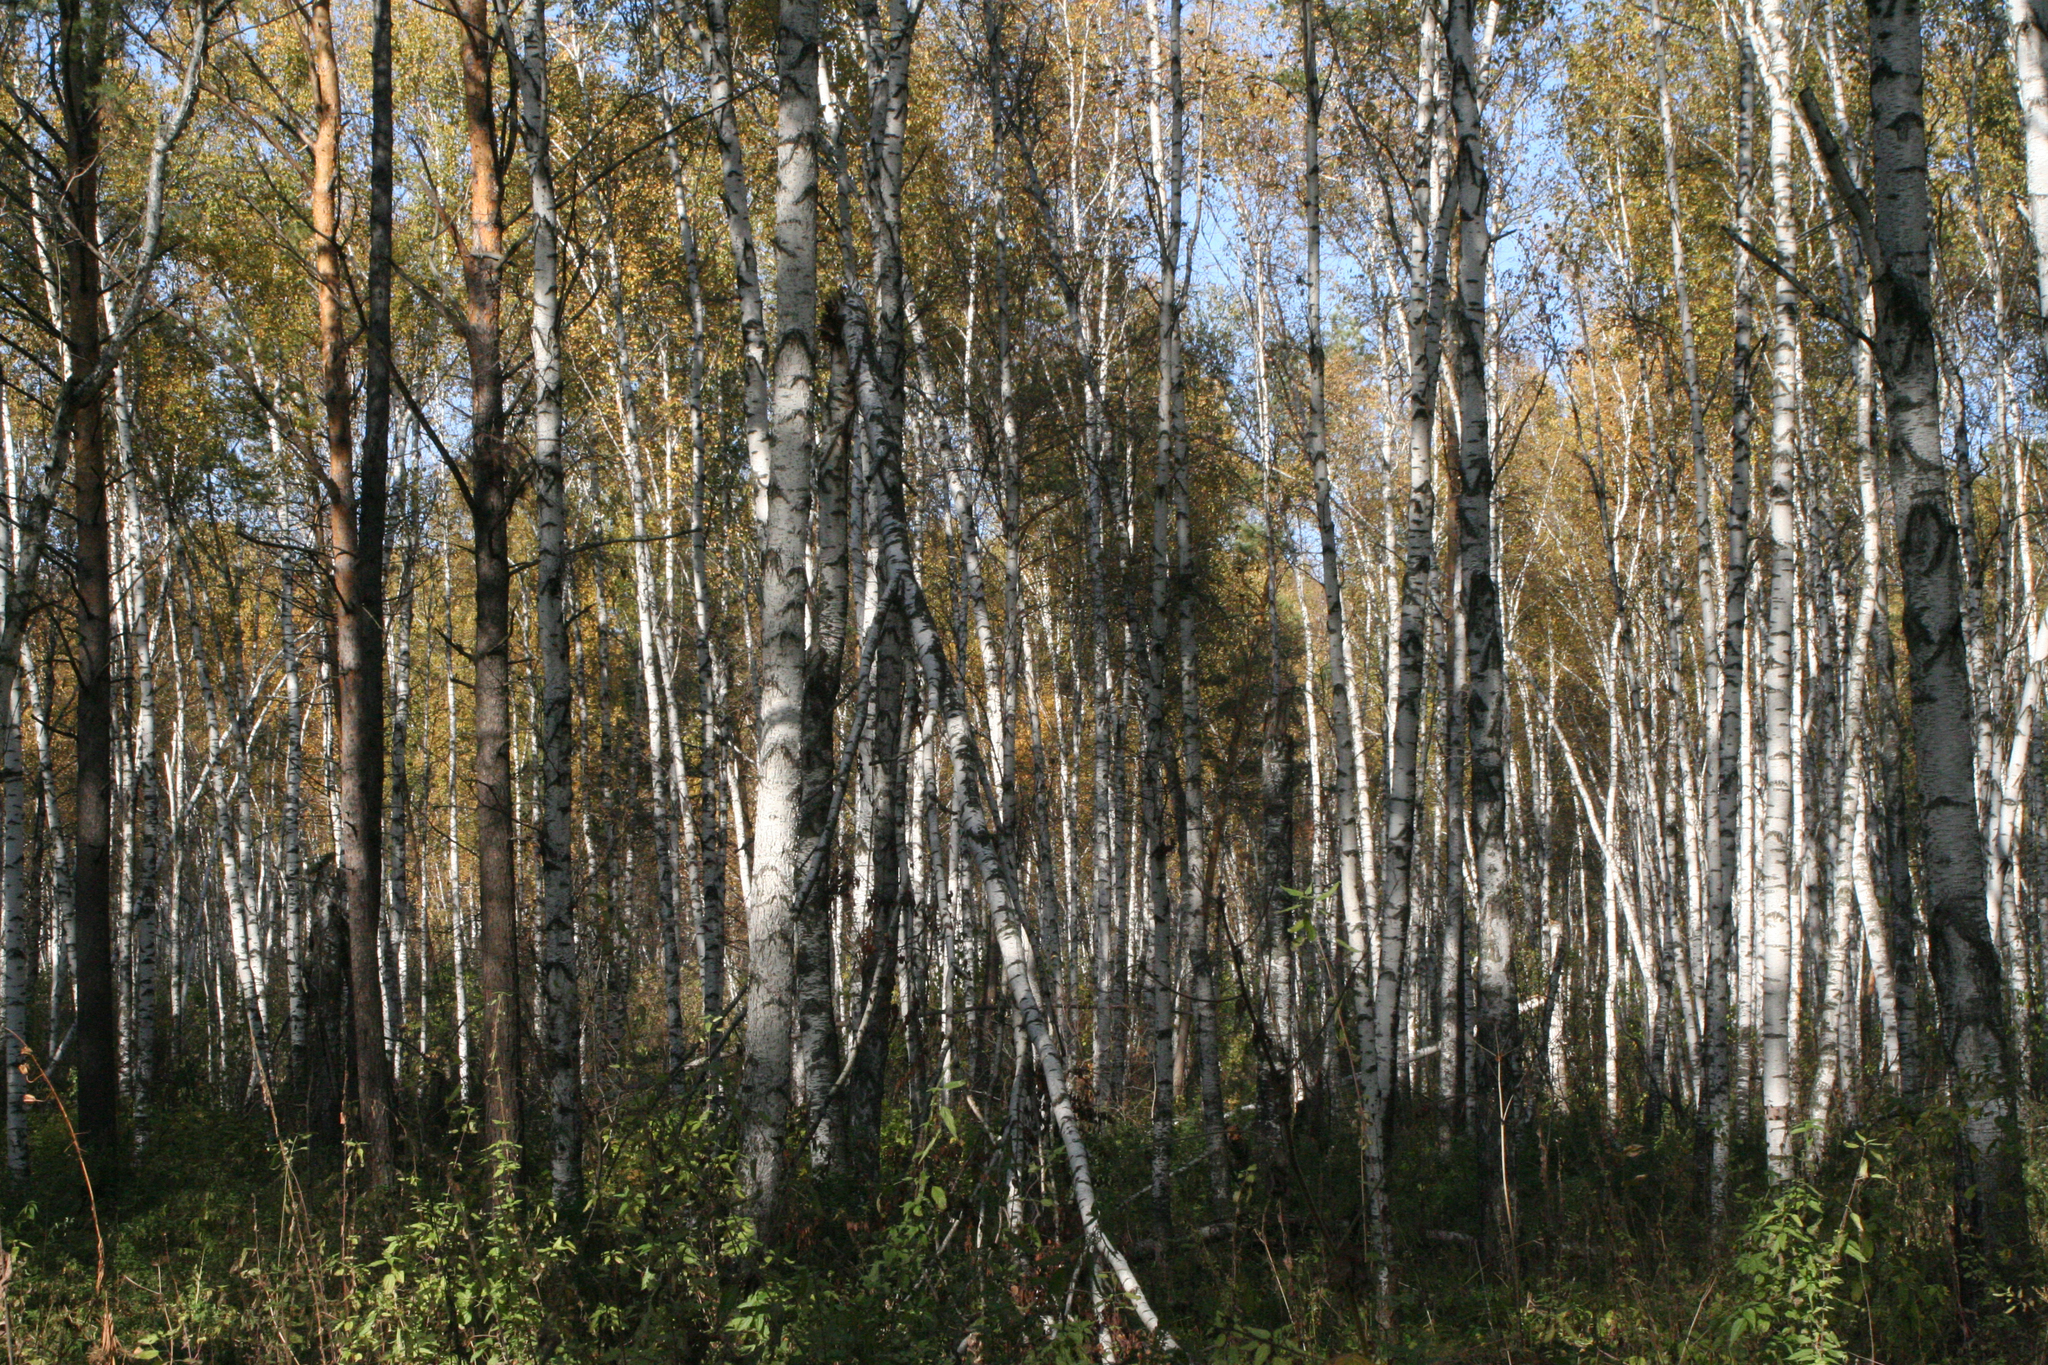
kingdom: Plantae
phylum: Tracheophyta
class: Magnoliopsida
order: Fagales
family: Betulaceae
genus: Betula
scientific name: Betula pubescens
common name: Downy birch
